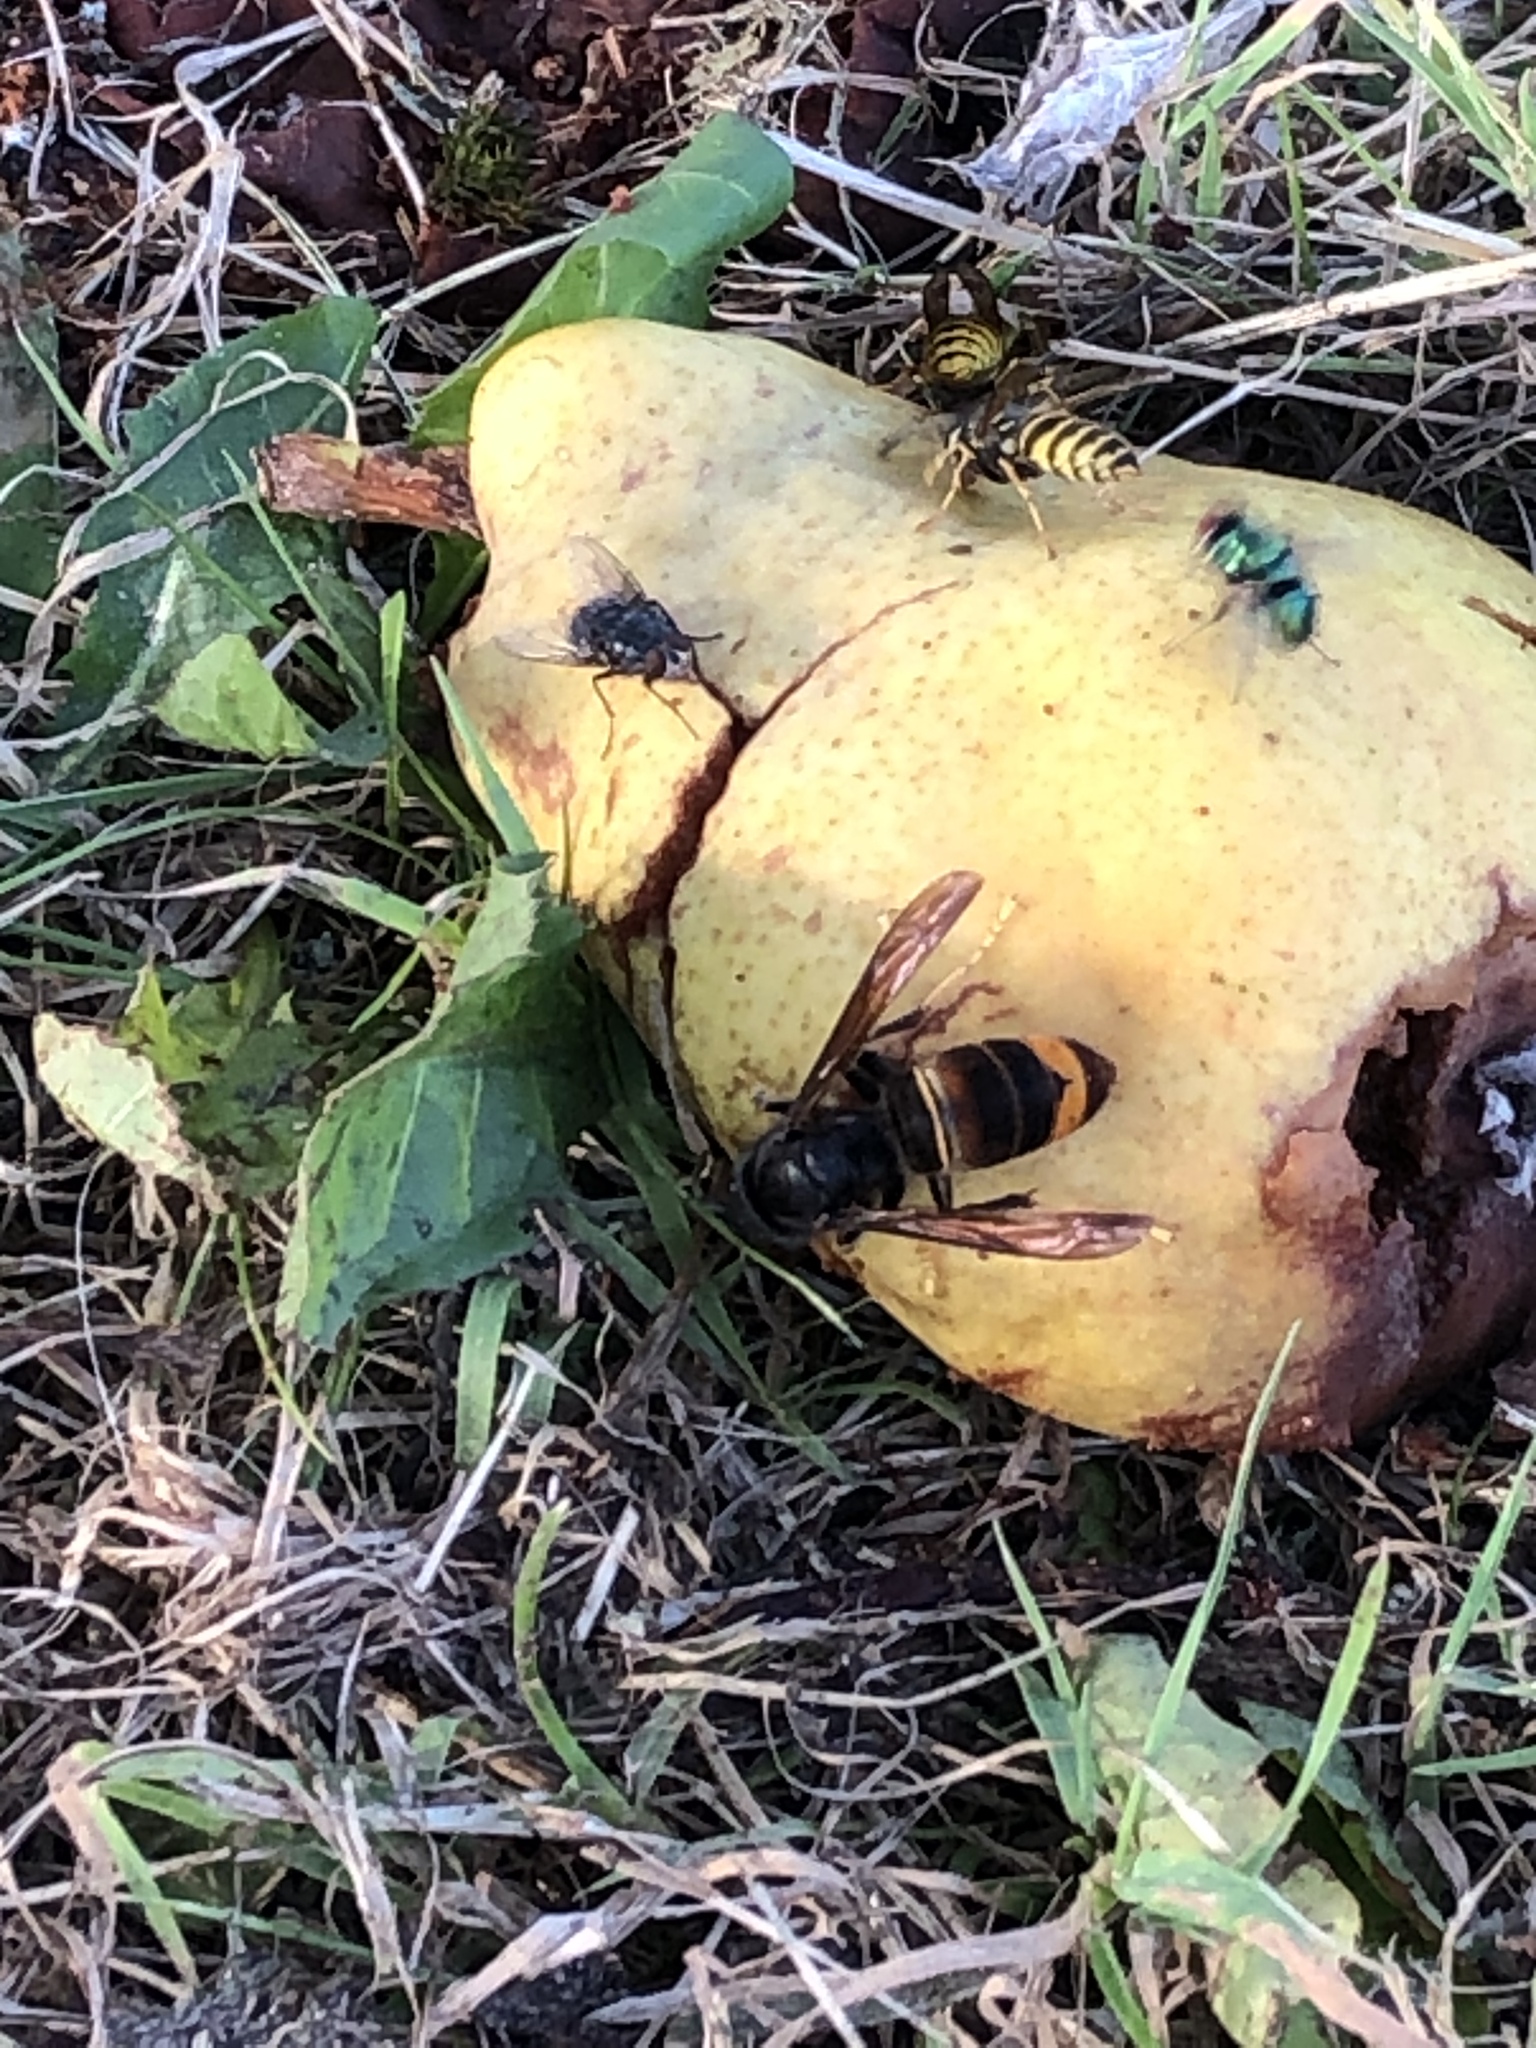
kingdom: Animalia
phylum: Arthropoda
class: Insecta
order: Hymenoptera
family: Vespidae
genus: Vespa
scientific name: Vespa velutina
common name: Asian hornet
